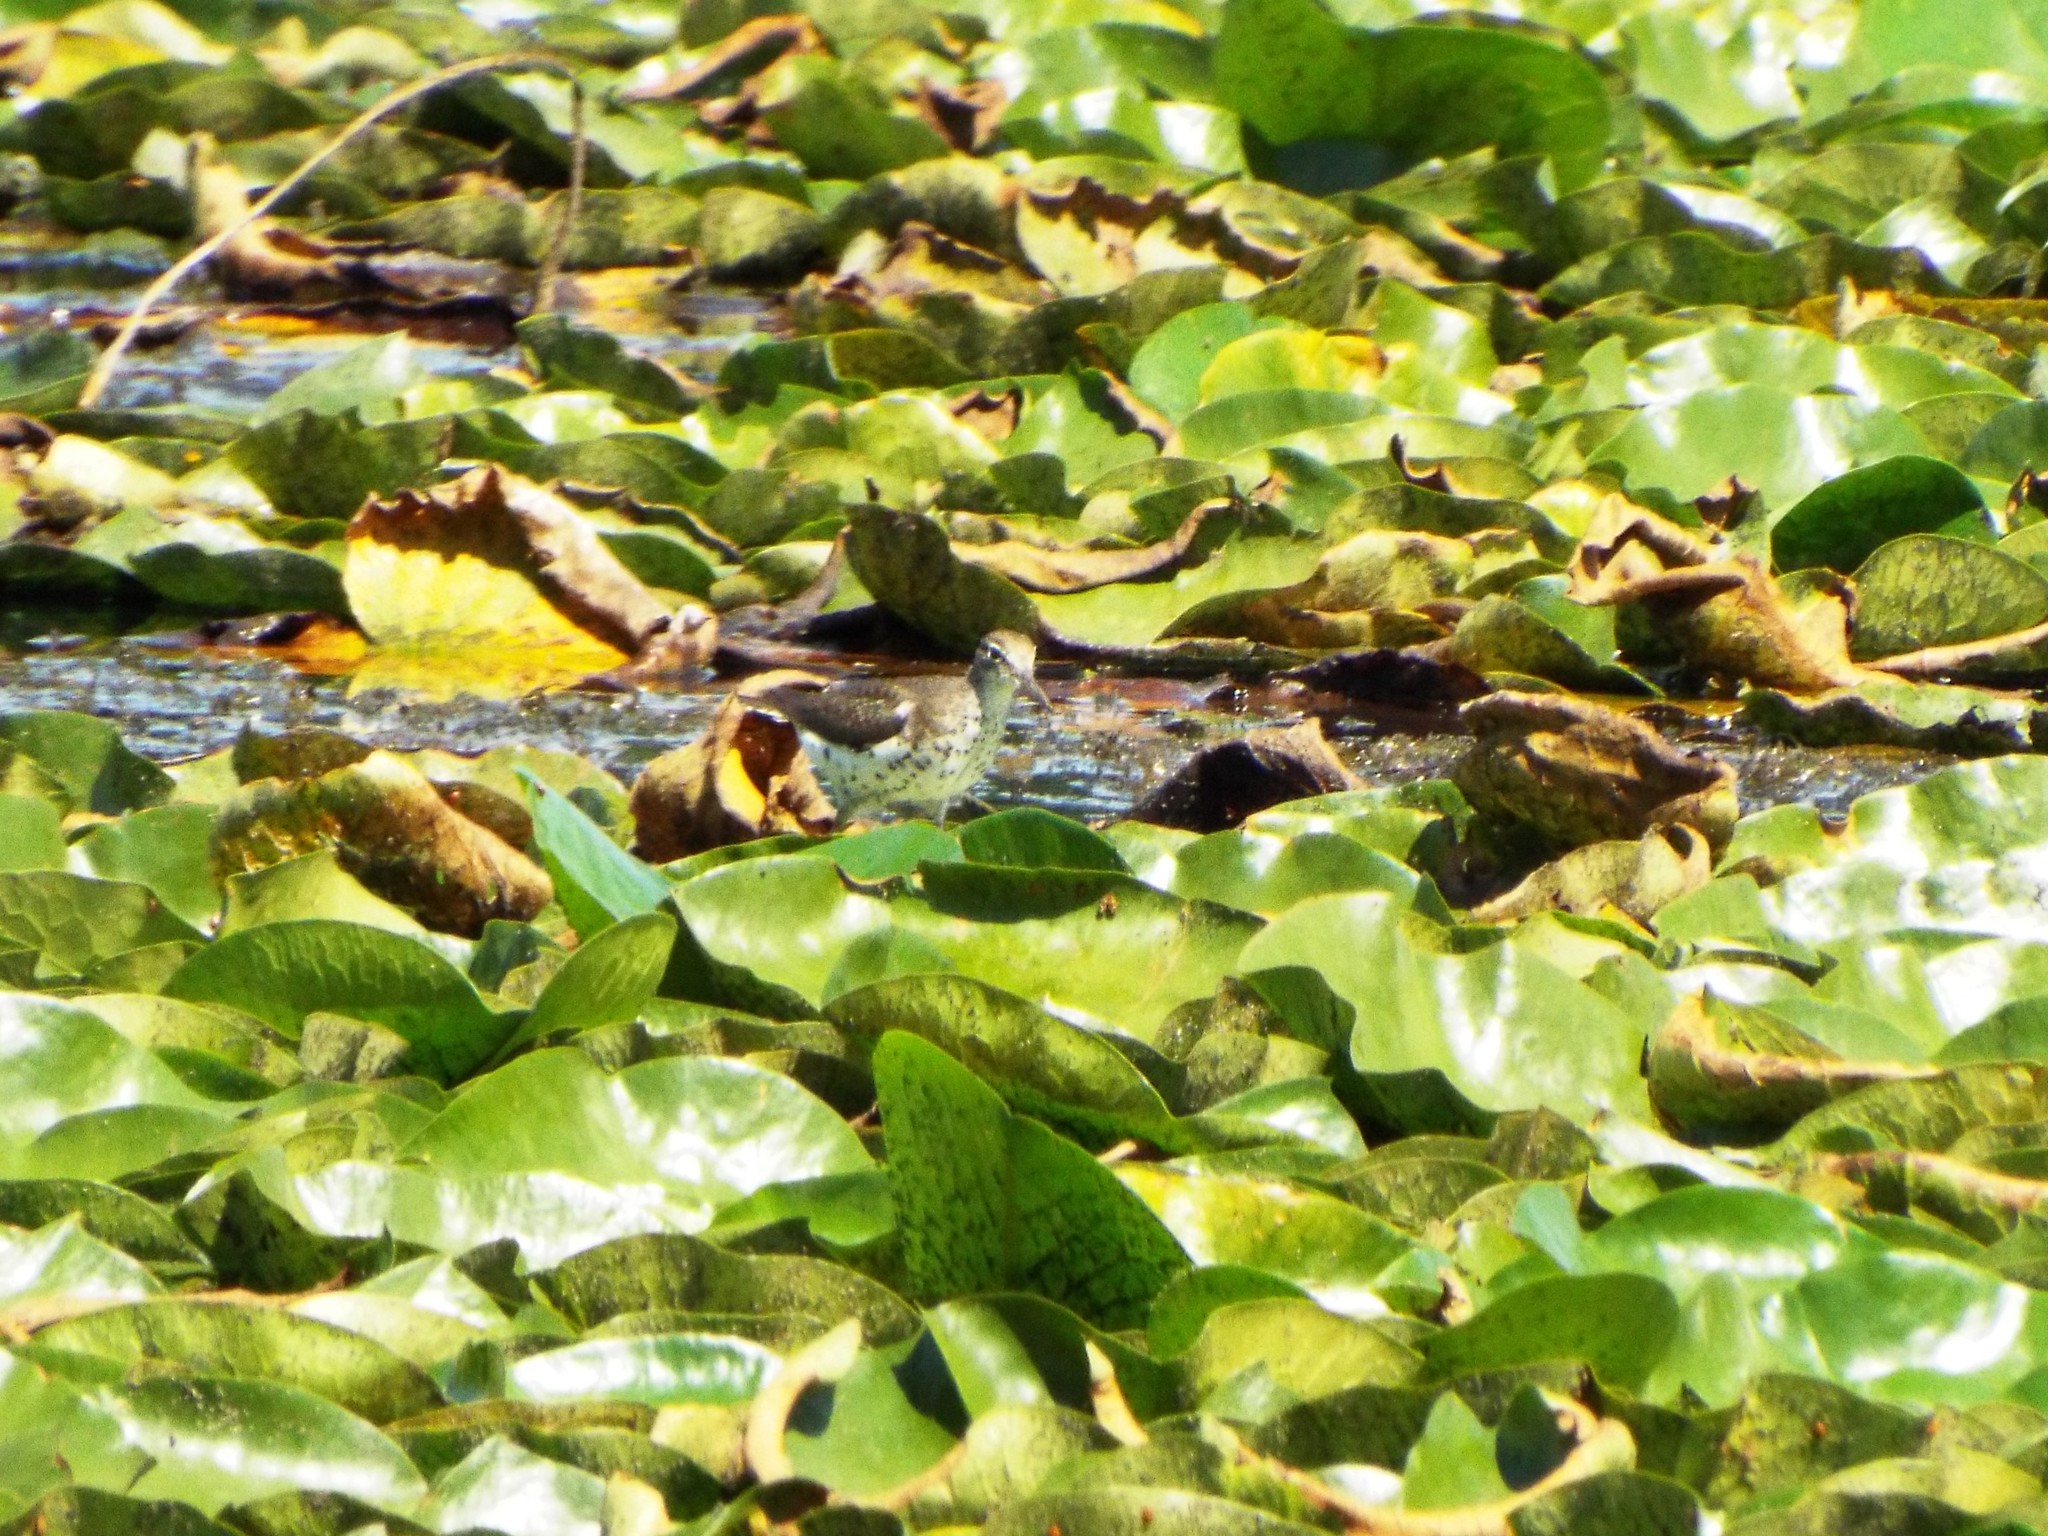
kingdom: Animalia
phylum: Chordata
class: Aves
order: Charadriiformes
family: Scolopacidae
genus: Actitis
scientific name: Actitis macularius
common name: Spotted sandpiper
